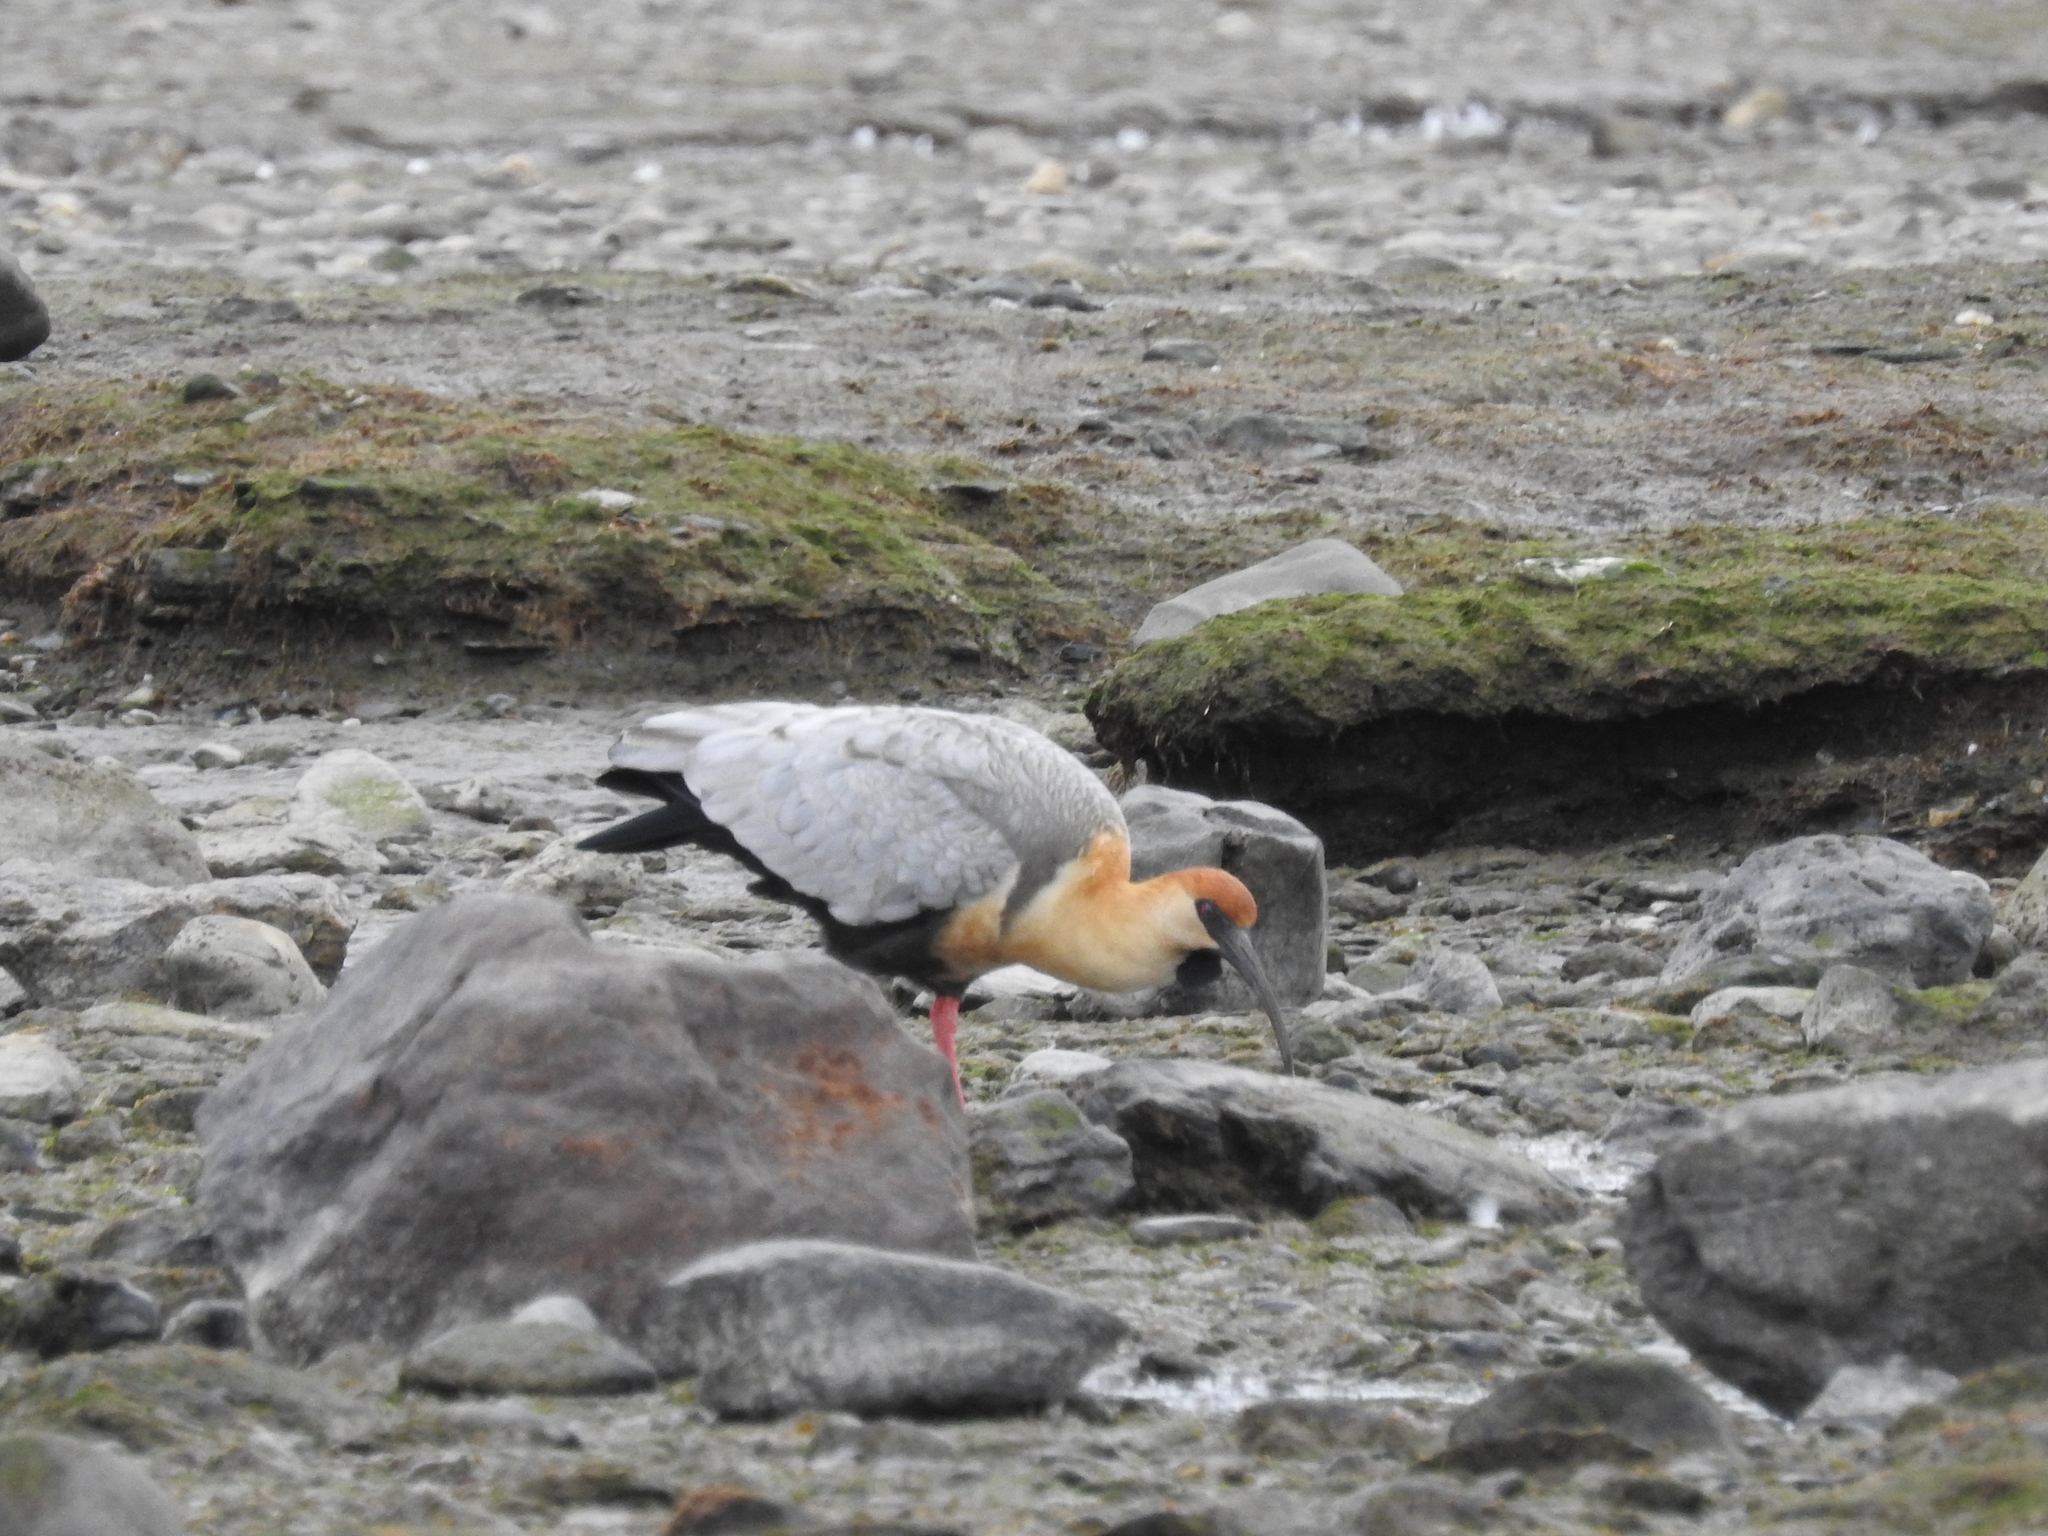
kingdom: Animalia
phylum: Chordata
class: Aves
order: Pelecaniformes
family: Threskiornithidae
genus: Theristicus
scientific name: Theristicus melanopis
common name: Black-faced ibis
